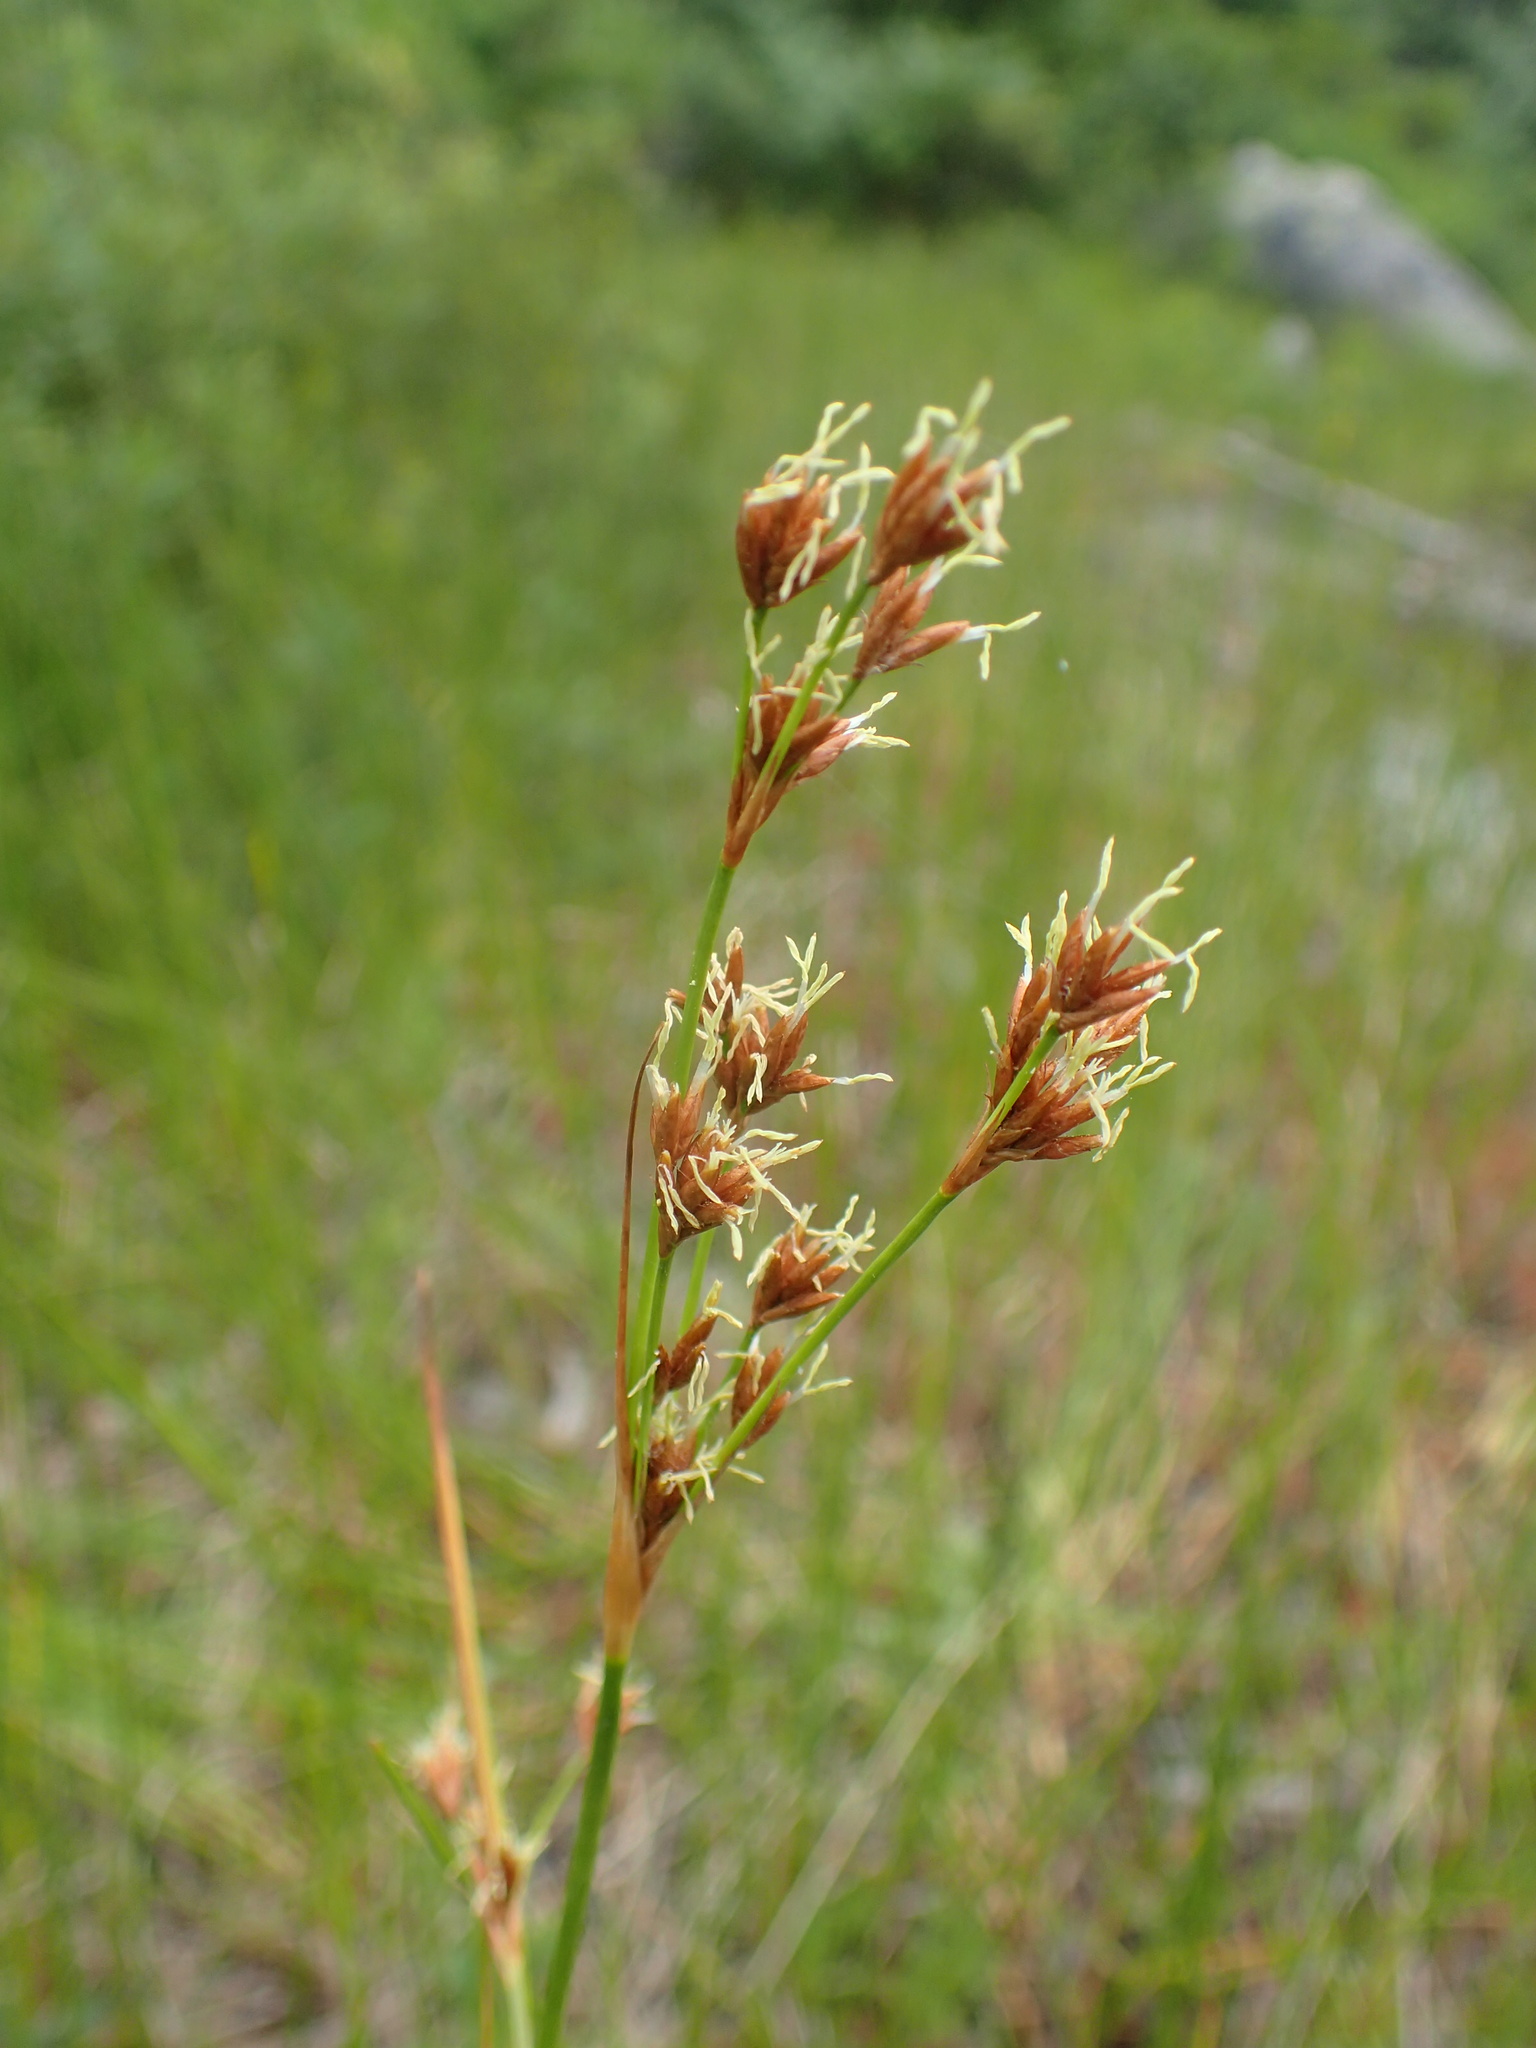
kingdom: Plantae
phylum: Tracheophyta
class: Liliopsida
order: Poales
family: Cyperaceae
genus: Cladium
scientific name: Cladium mariscoides
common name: Smooth sawgrass
